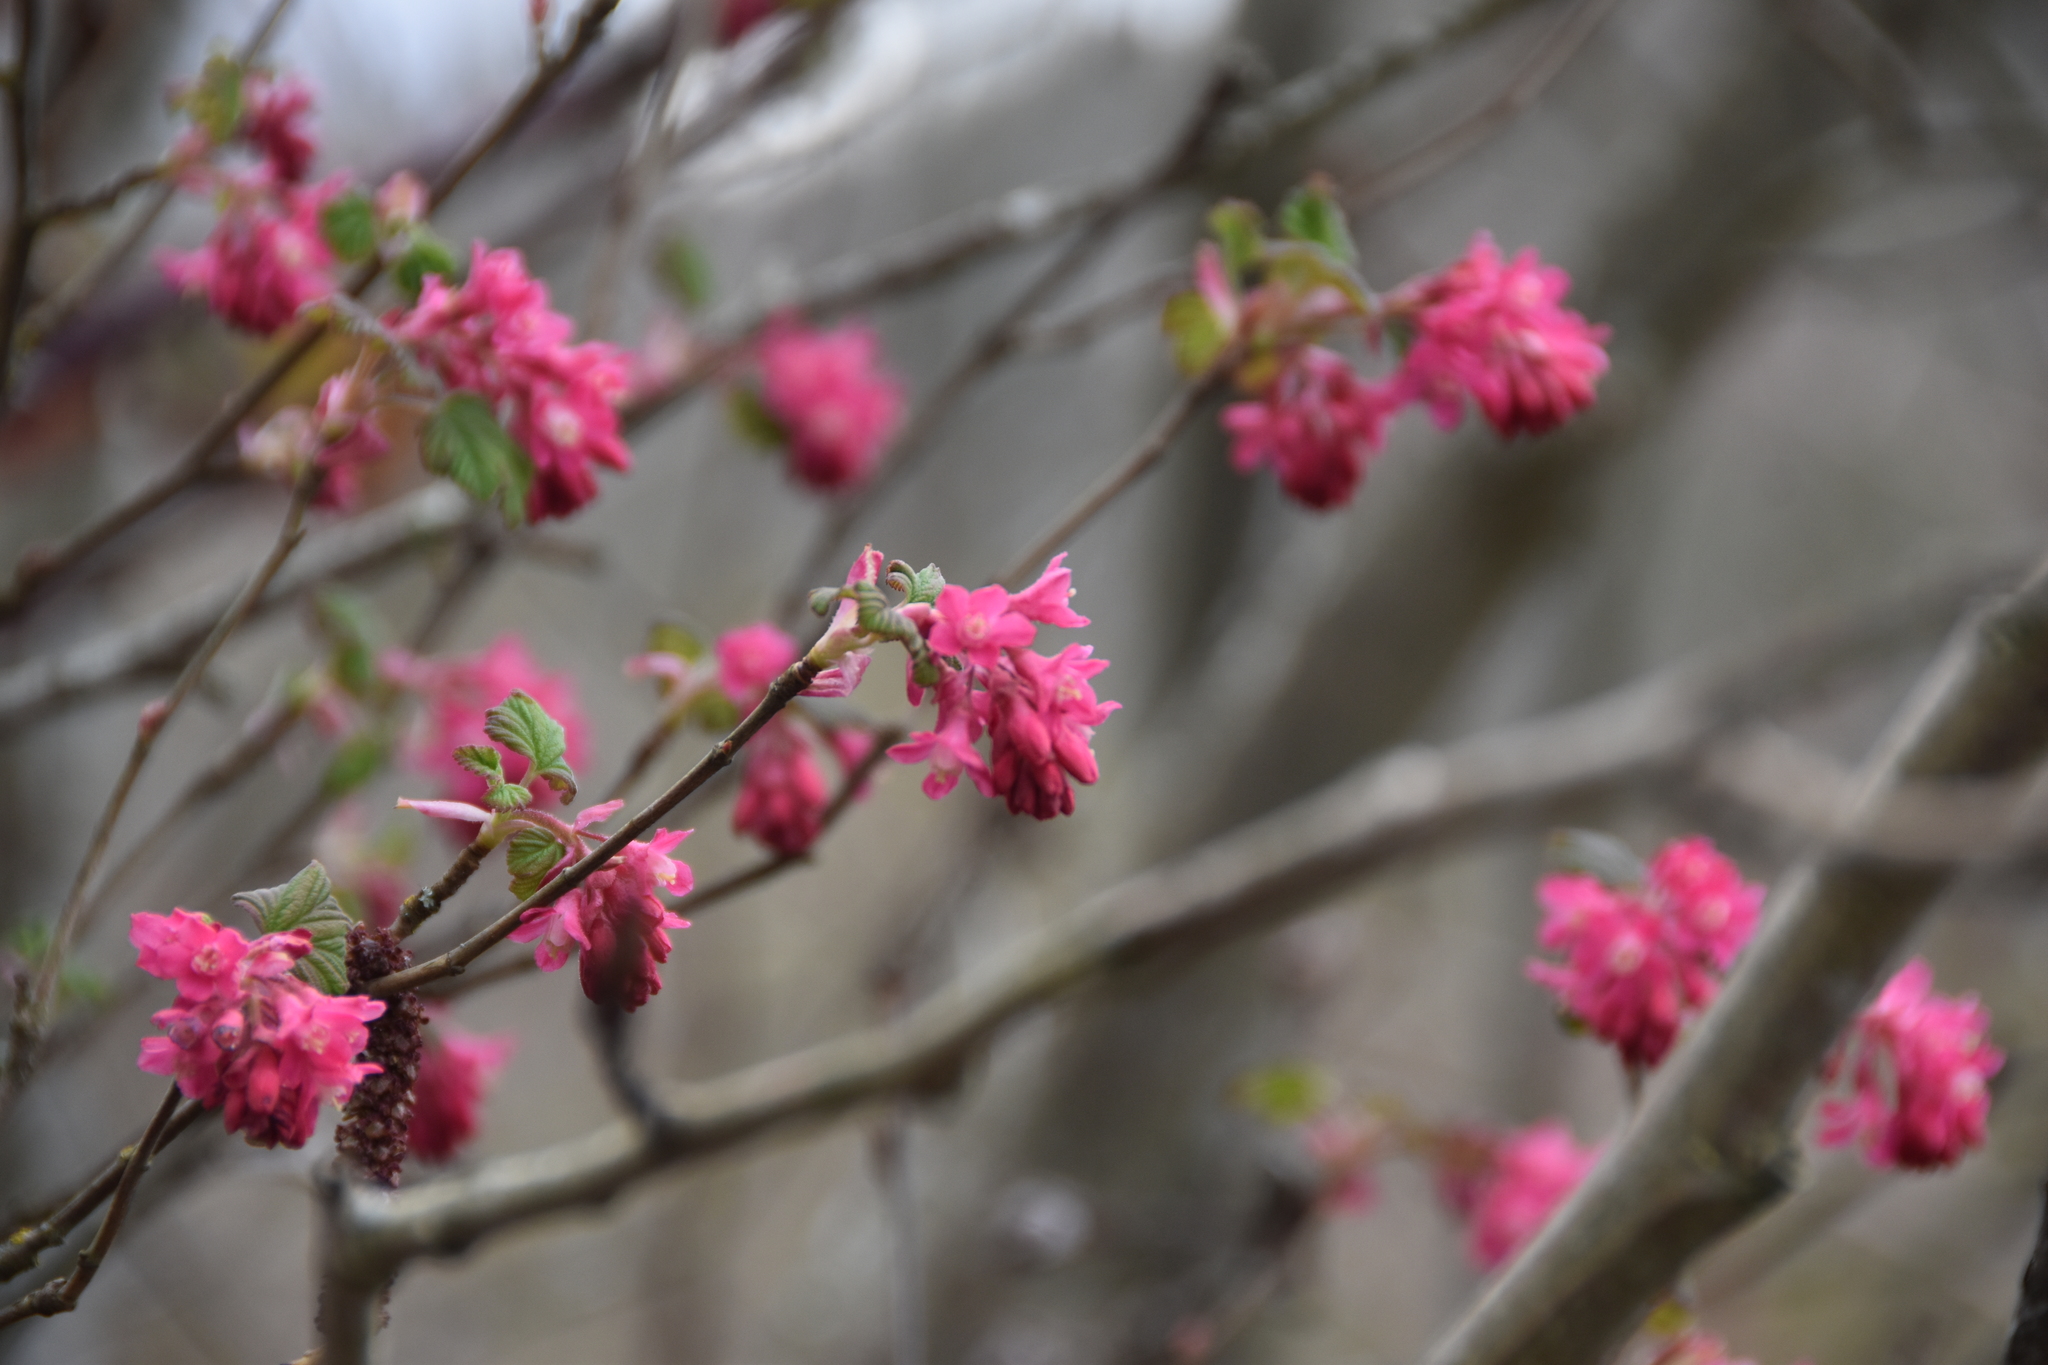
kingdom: Plantae
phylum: Tracheophyta
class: Magnoliopsida
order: Saxifragales
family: Grossulariaceae
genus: Ribes
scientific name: Ribes sanguineum
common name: Flowering currant
